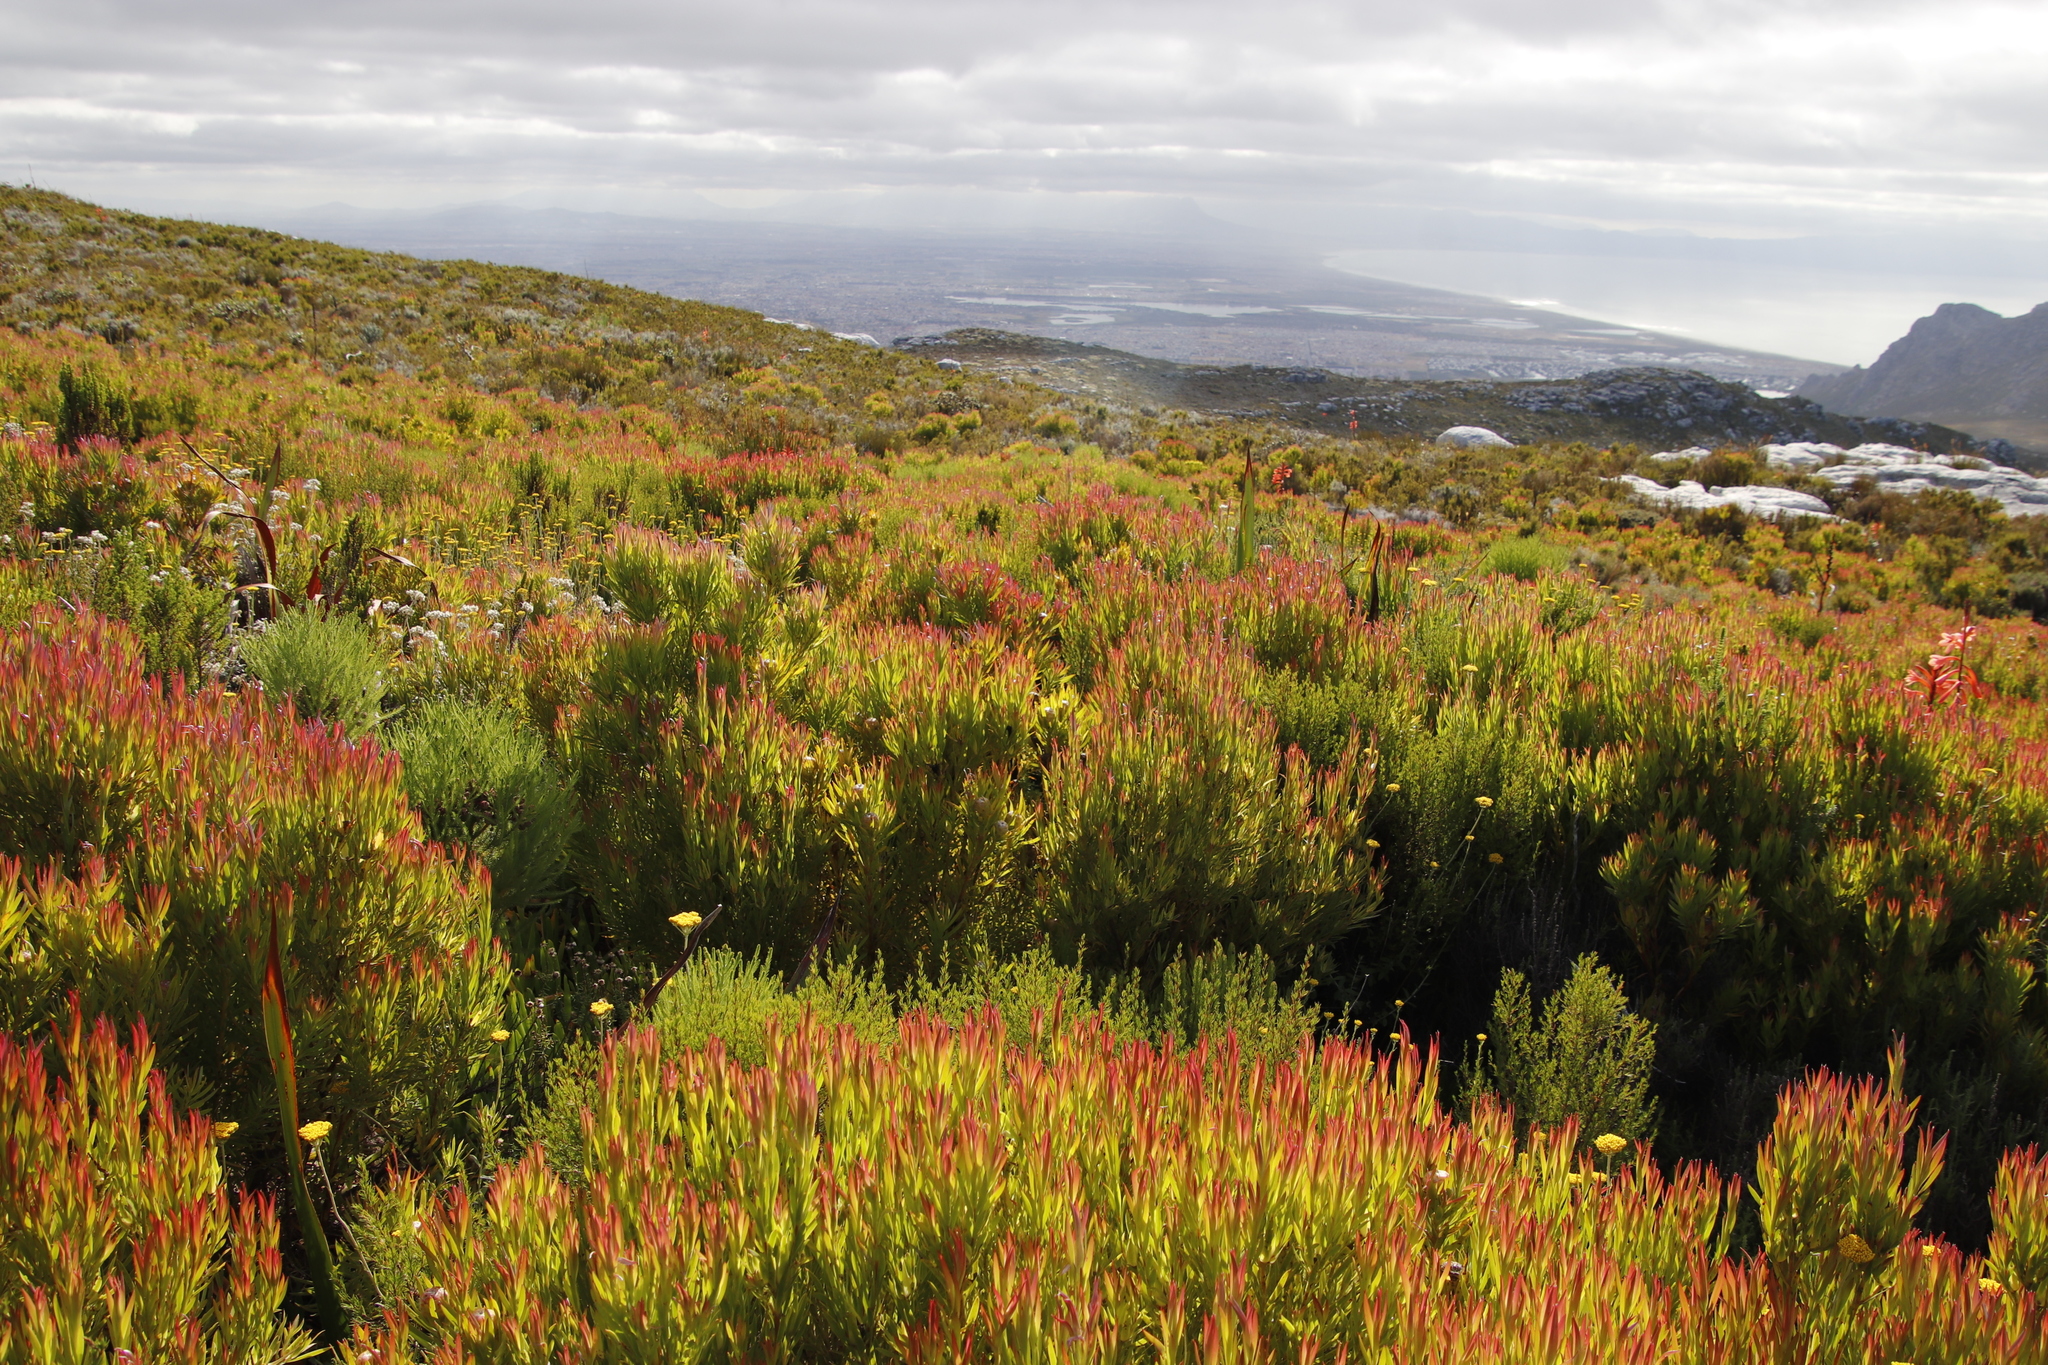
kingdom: Plantae
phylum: Tracheophyta
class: Magnoliopsida
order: Proteales
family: Proteaceae
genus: Leucadendron
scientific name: Leucadendron xanthoconus
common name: Sickle-leaf conebush
